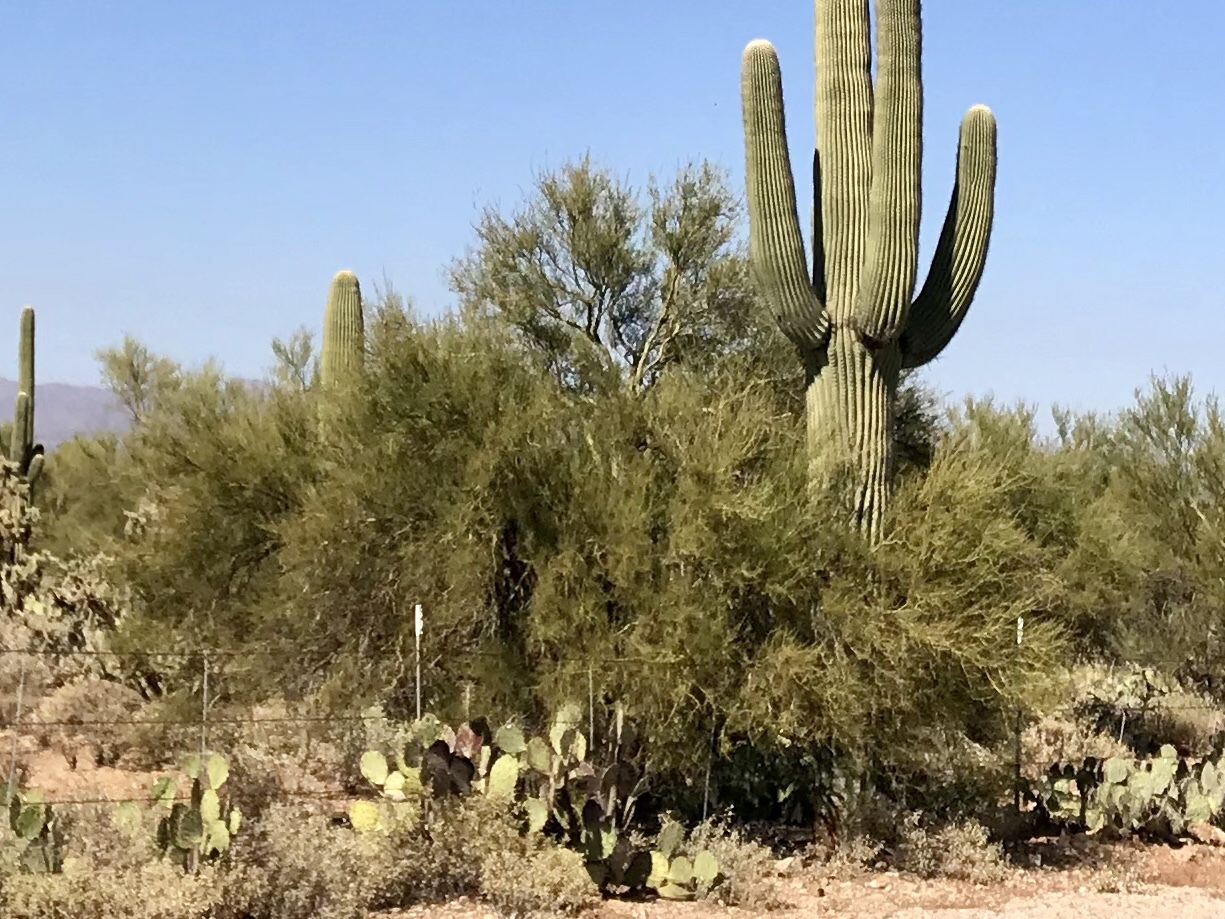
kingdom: Plantae
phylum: Tracheophyta
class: Magnoliopsida
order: Fabales
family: Fabaceae
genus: Parkinsonia
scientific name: Parkinsonia microphylla
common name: Yellow paloverde
